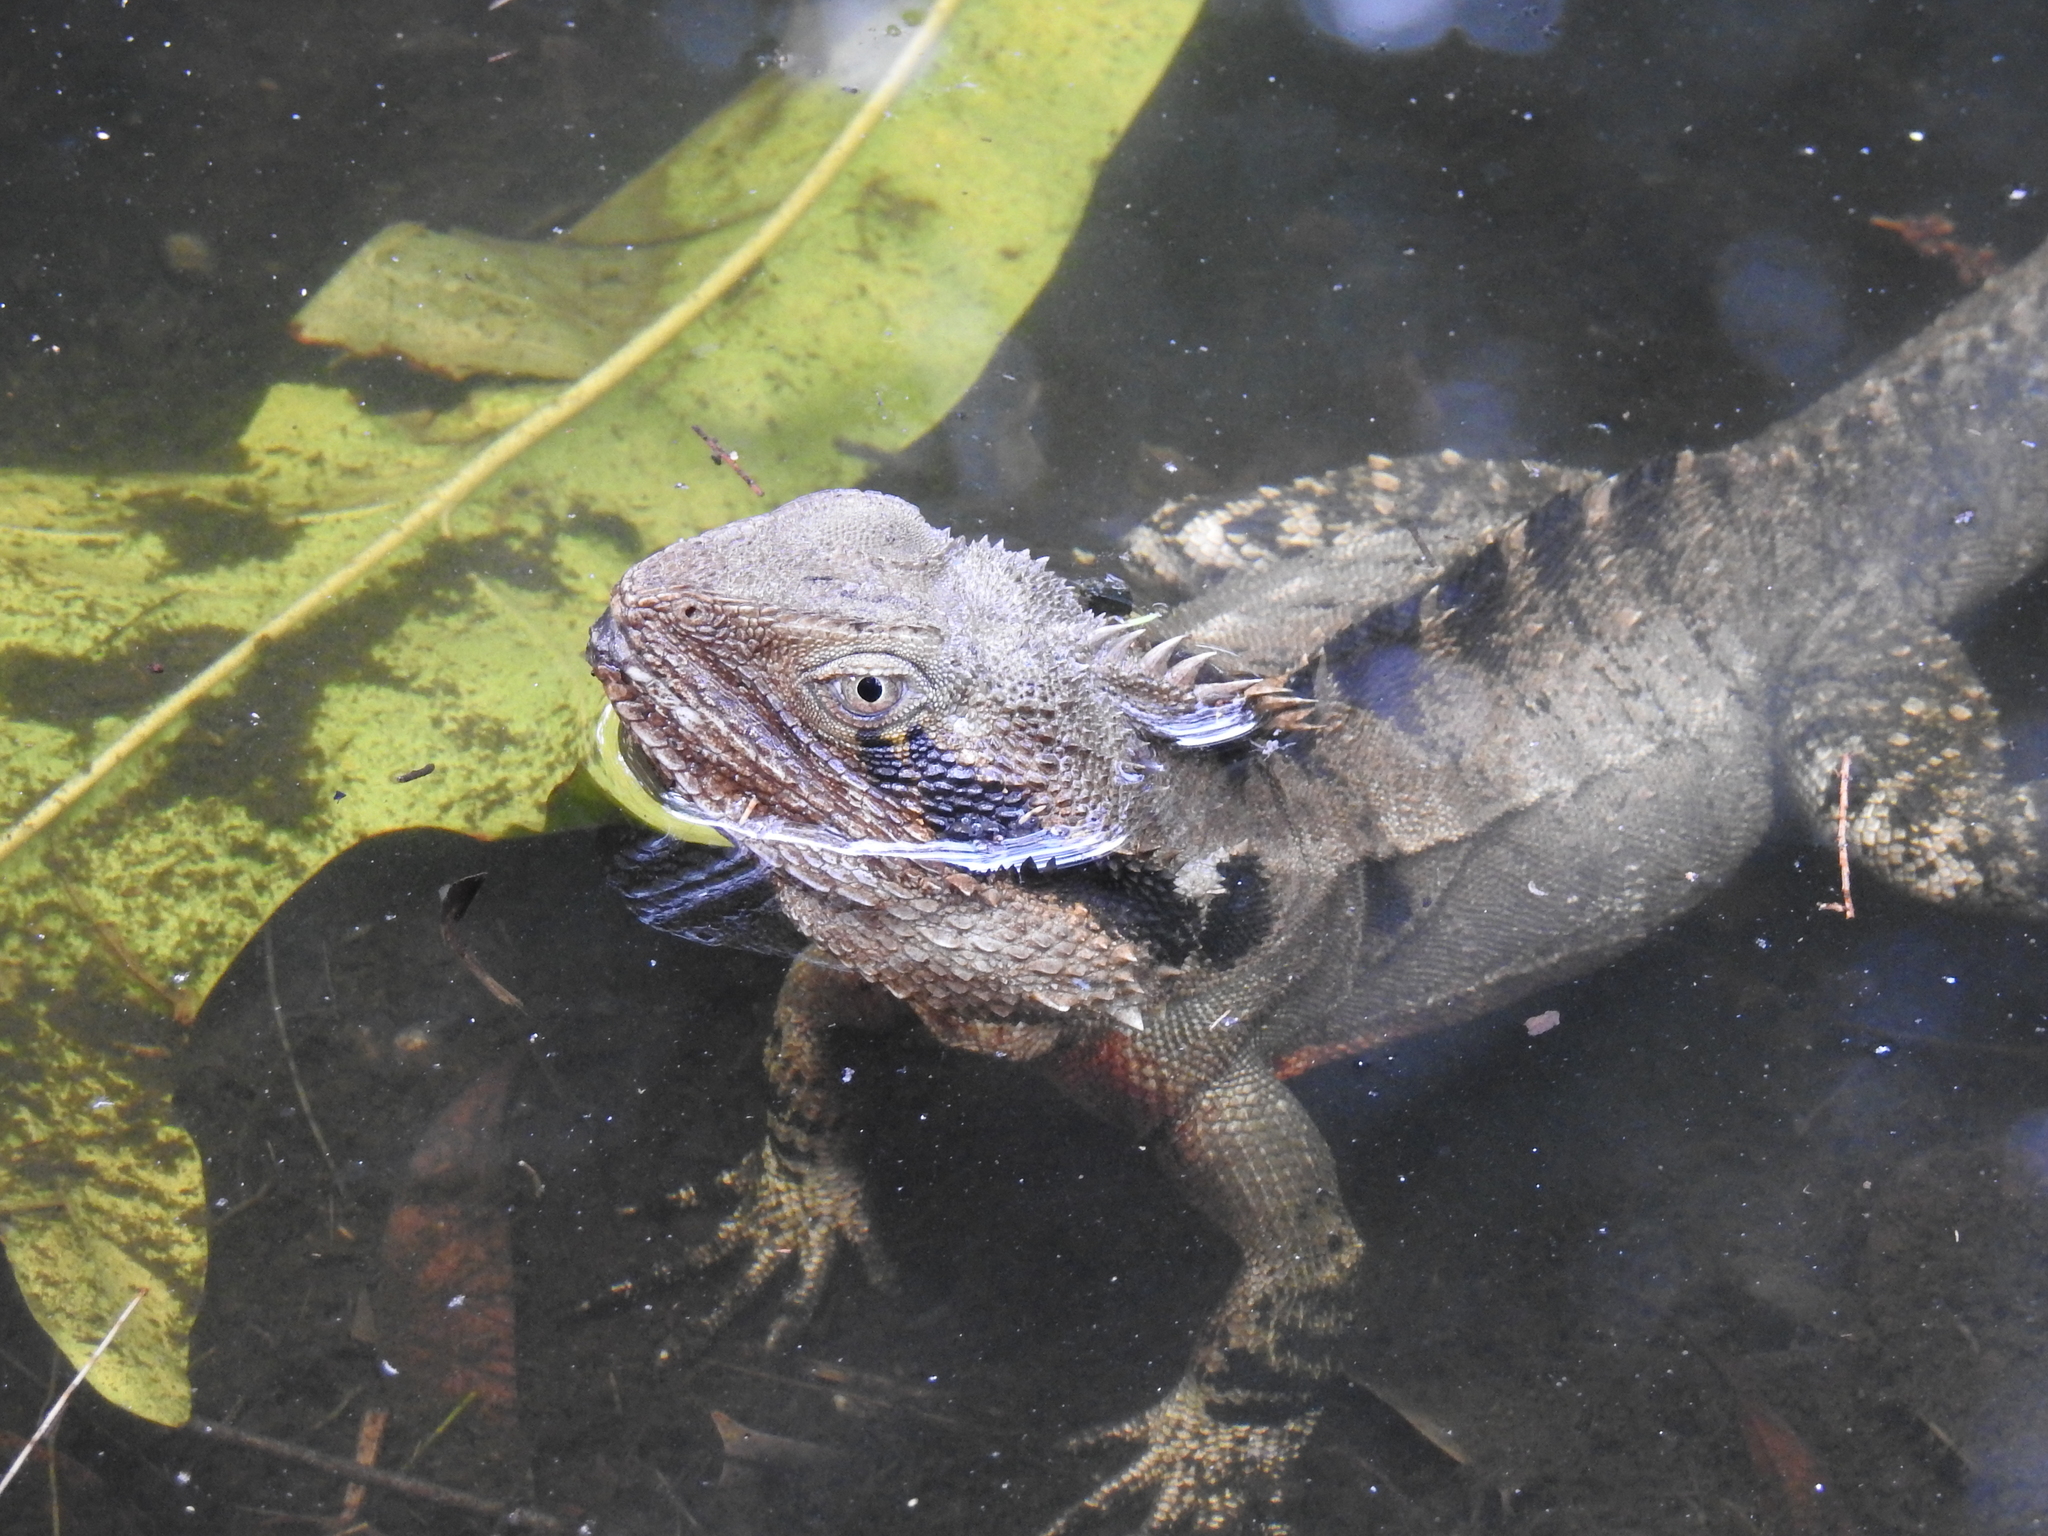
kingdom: Animalia
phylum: Chordata
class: Squamata
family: Agamidae
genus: Intellagama
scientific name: Intellagama lesueurii
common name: Eastern water dragon
